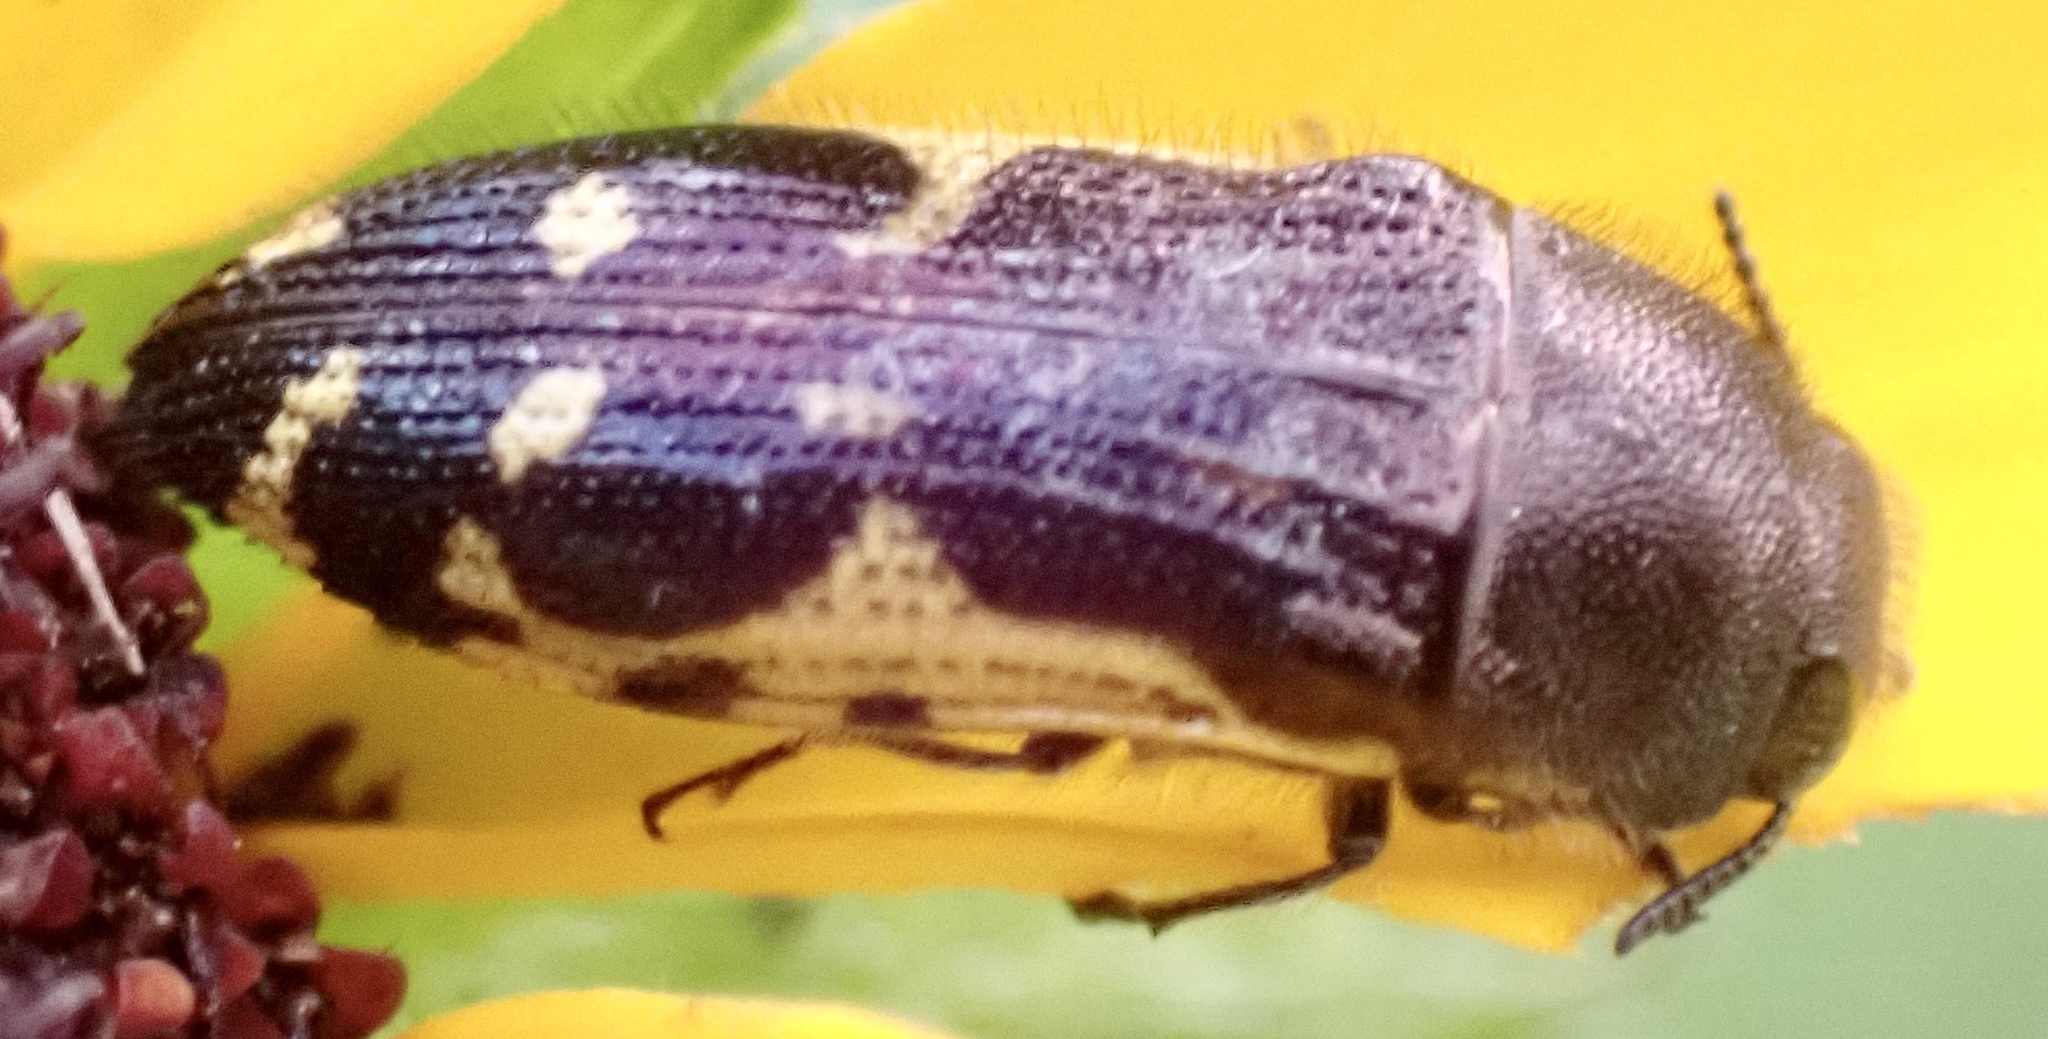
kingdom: Animalia
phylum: Arthropoda
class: Insecta
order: Coleoptera
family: Buprestidae
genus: Acmaeodera
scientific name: Acmaeodera pulchella
